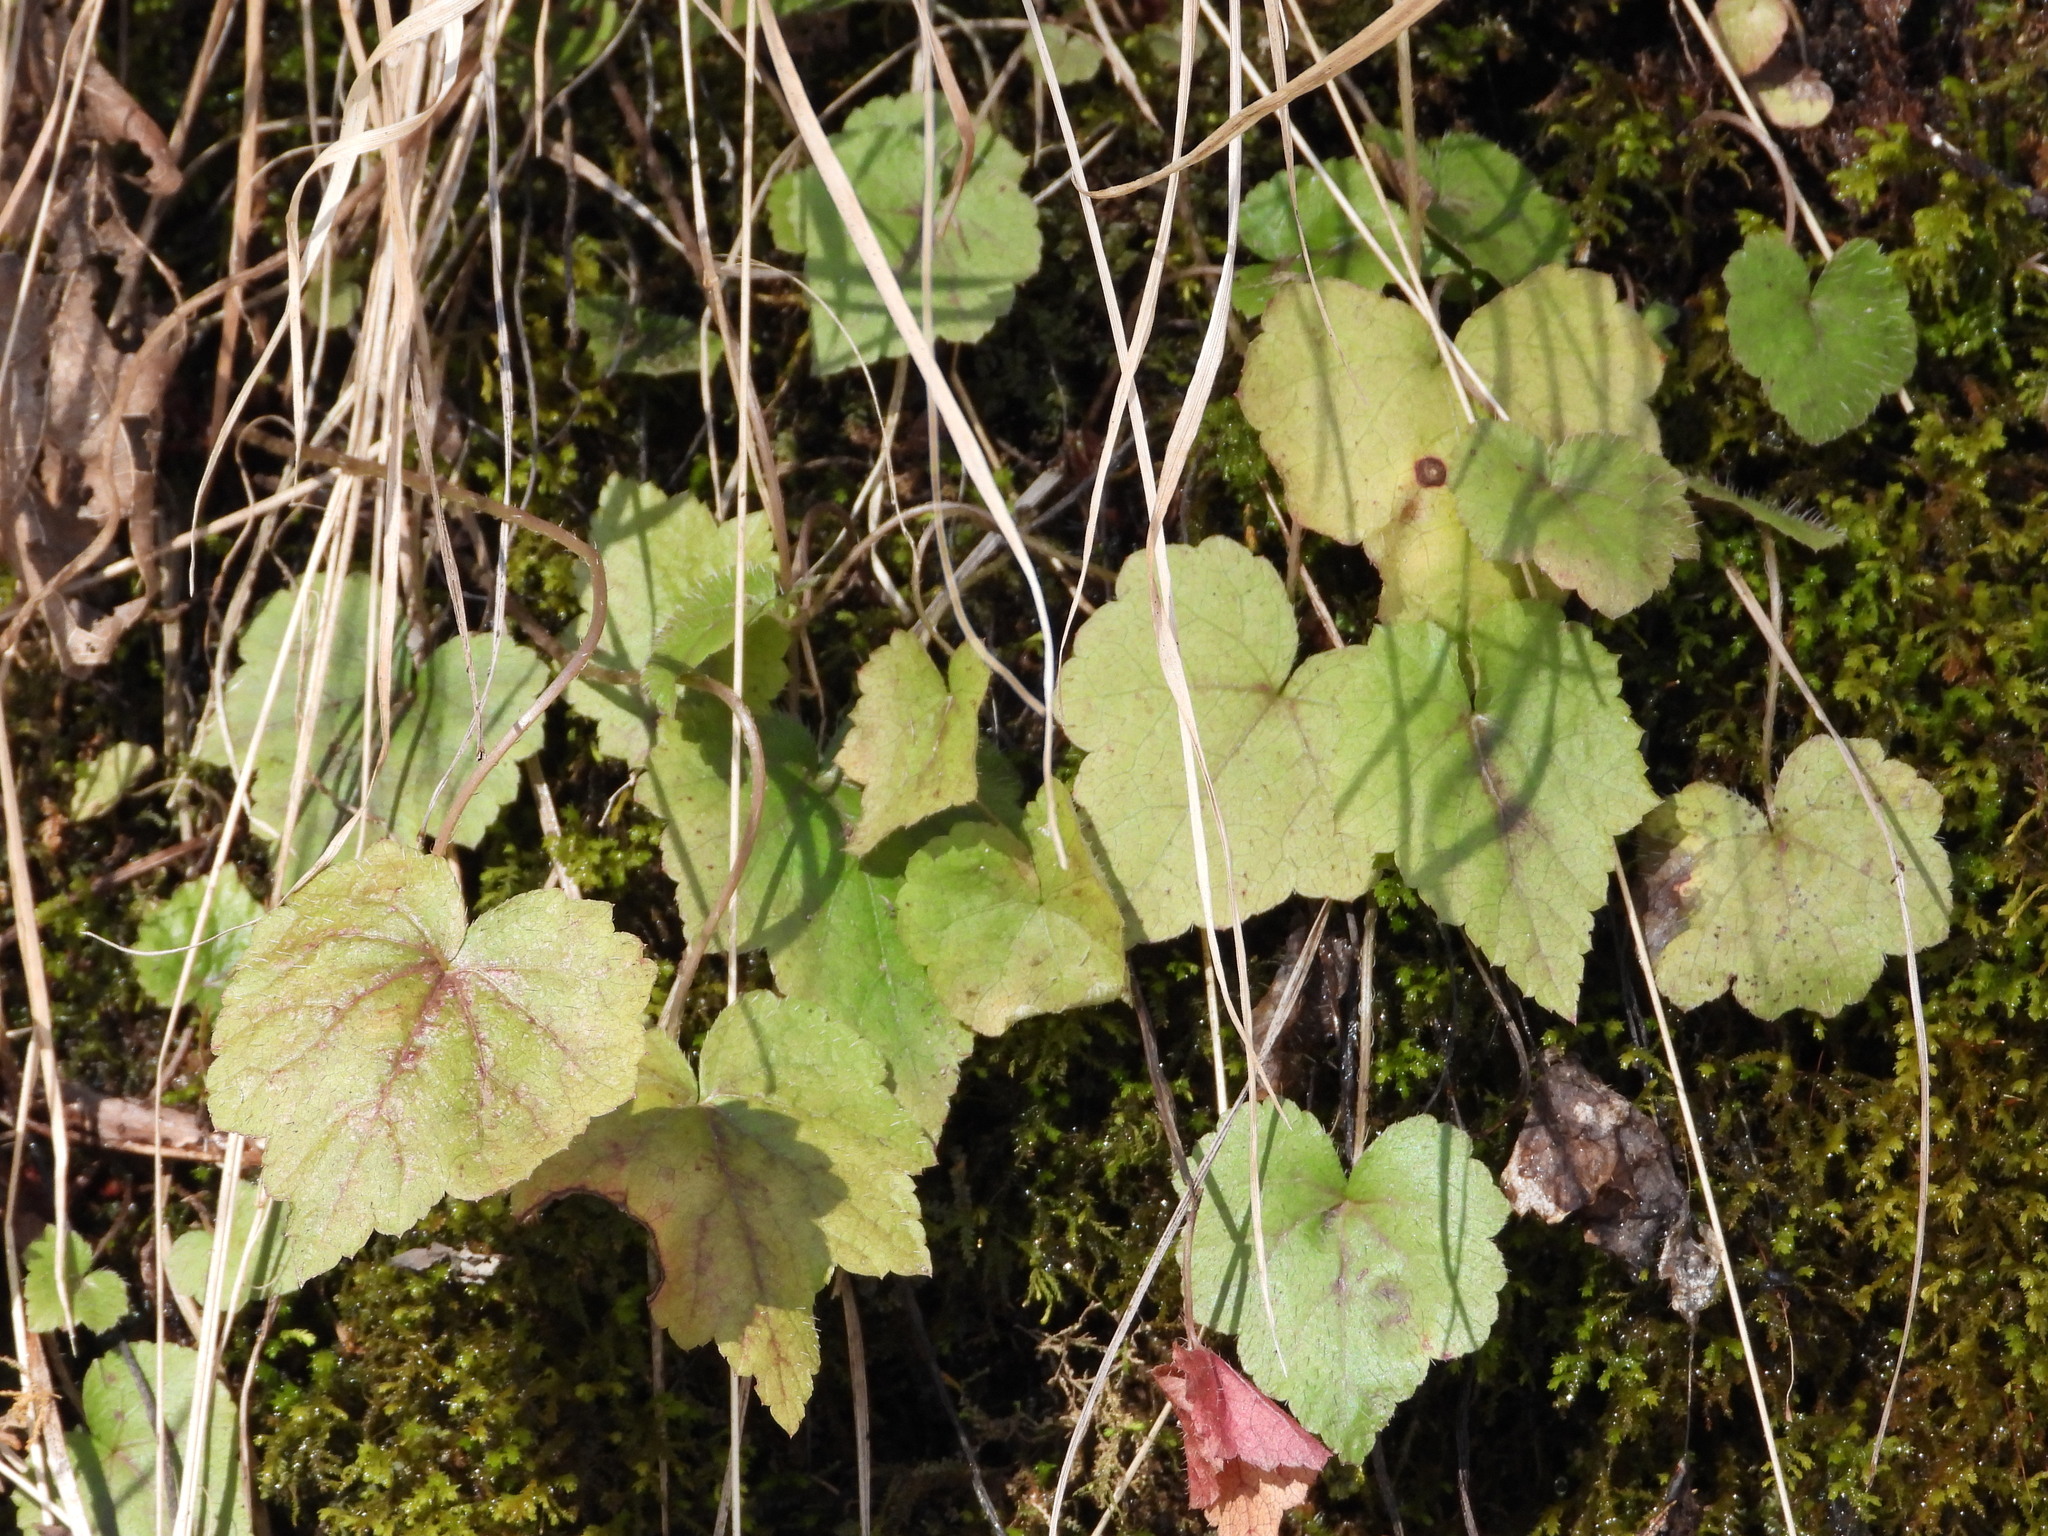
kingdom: Plantae
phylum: Tracheophyta
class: Magnoliopsida
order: Saxifragales
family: Saxifragaceae
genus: Heuchera
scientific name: Heuchera americana
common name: Alumroot
